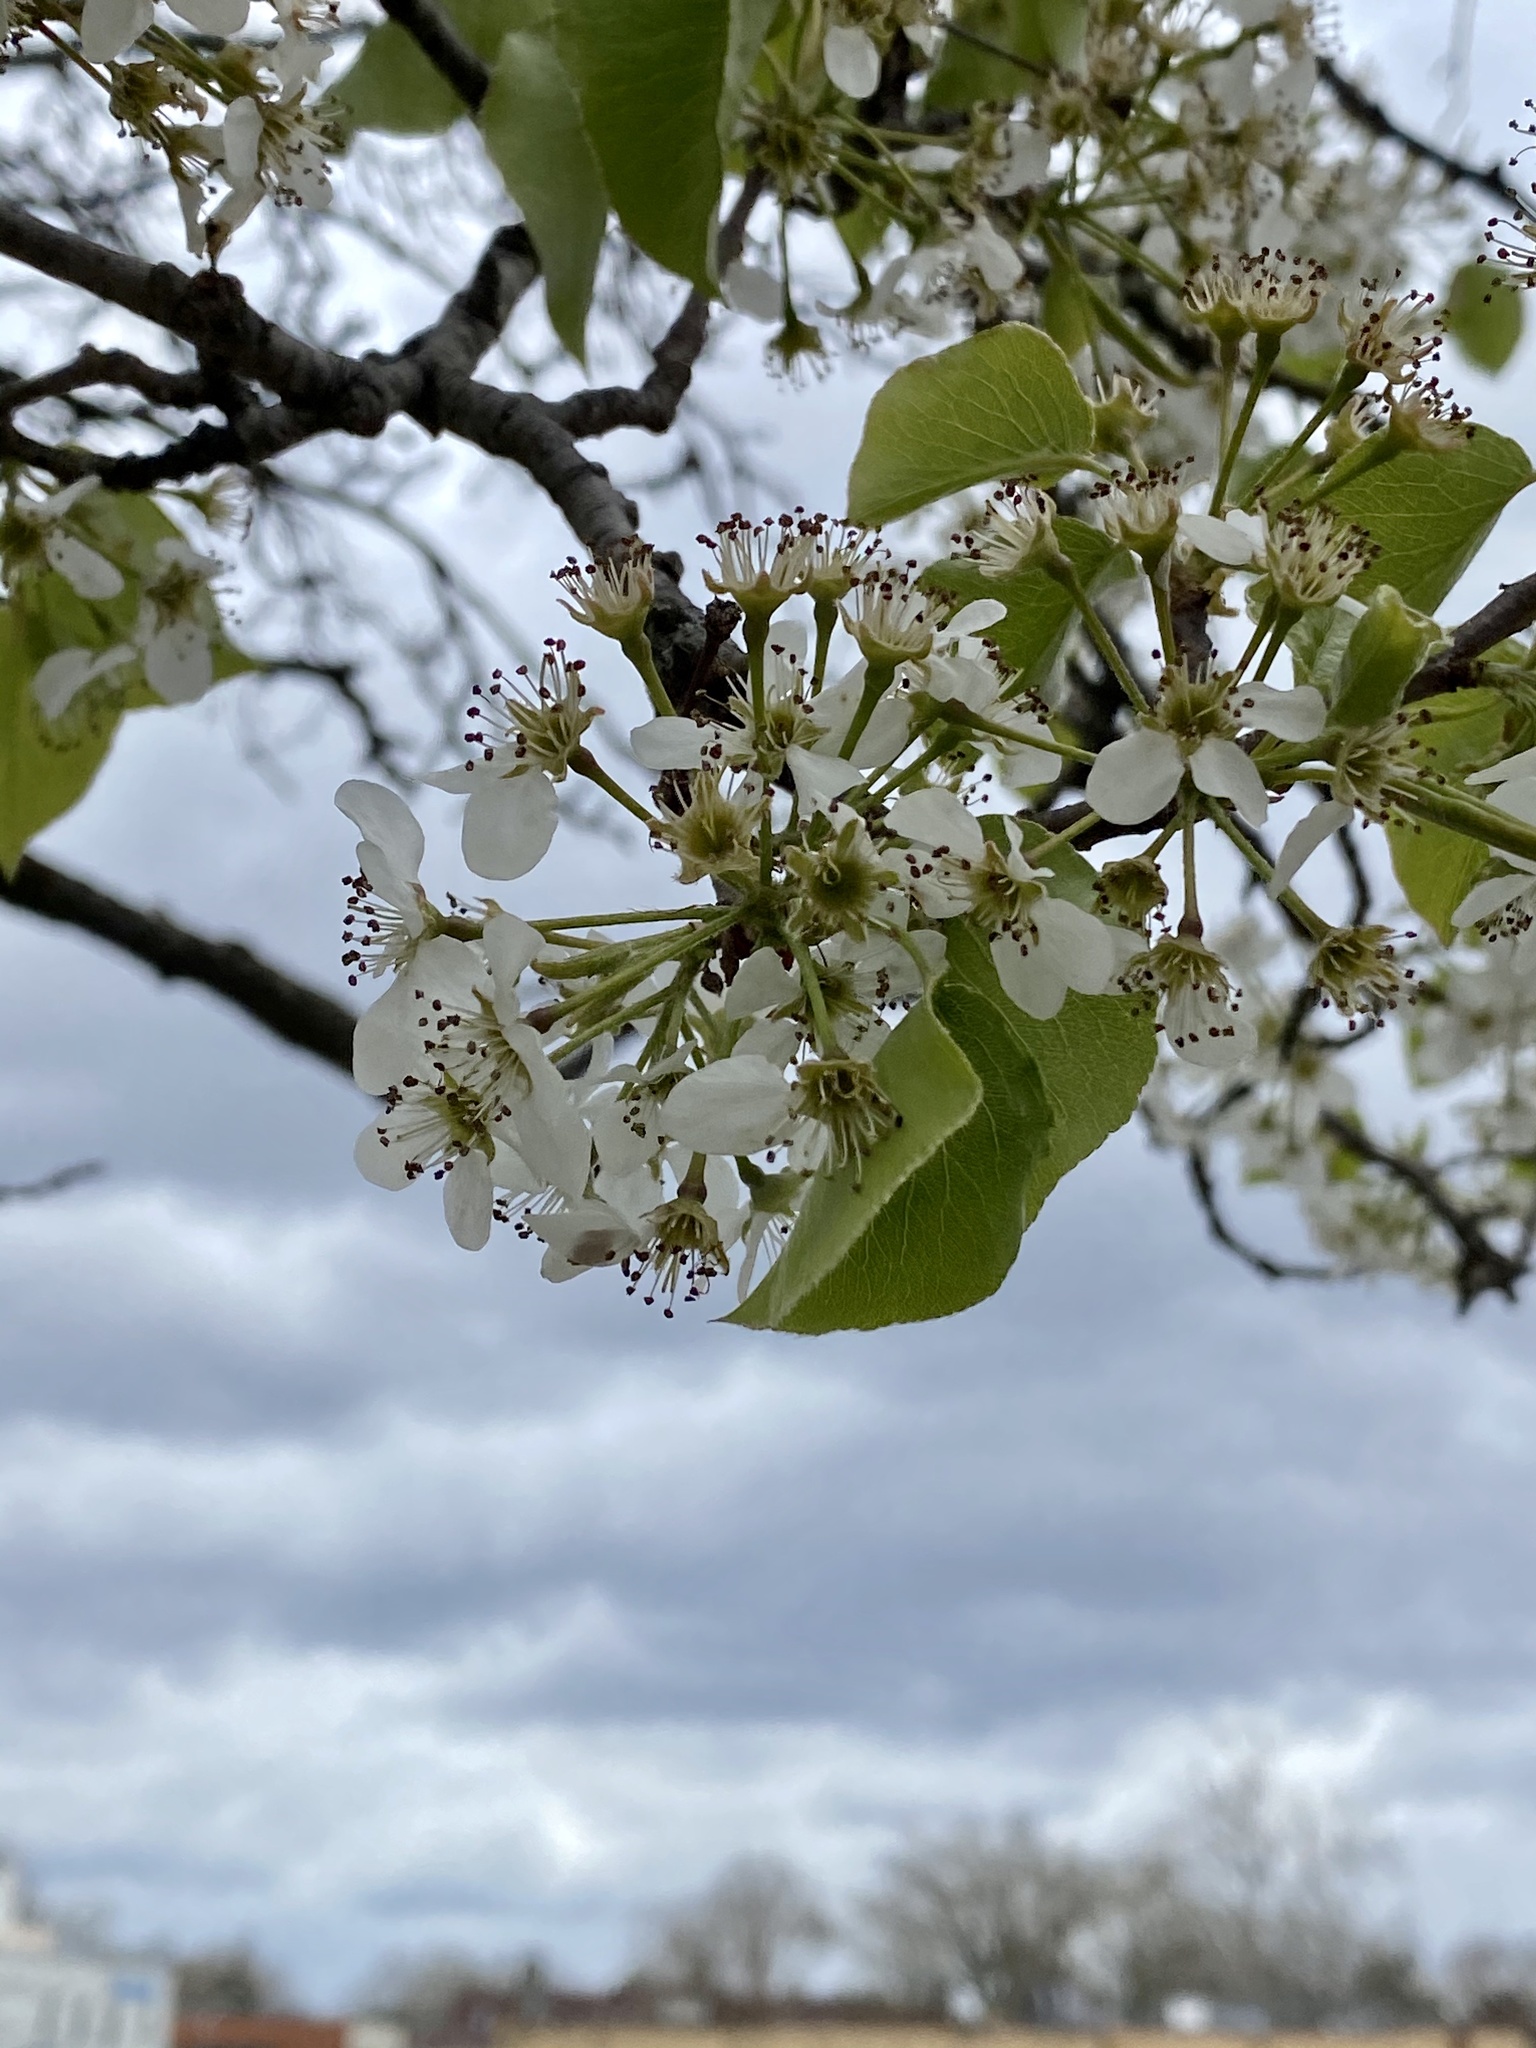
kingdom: Plantae
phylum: Tracheophyta
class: Magnoliopsida
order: Rosales
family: Rosaceae
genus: Pyrus
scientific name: Pyrus calleryana
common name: Callery pear
